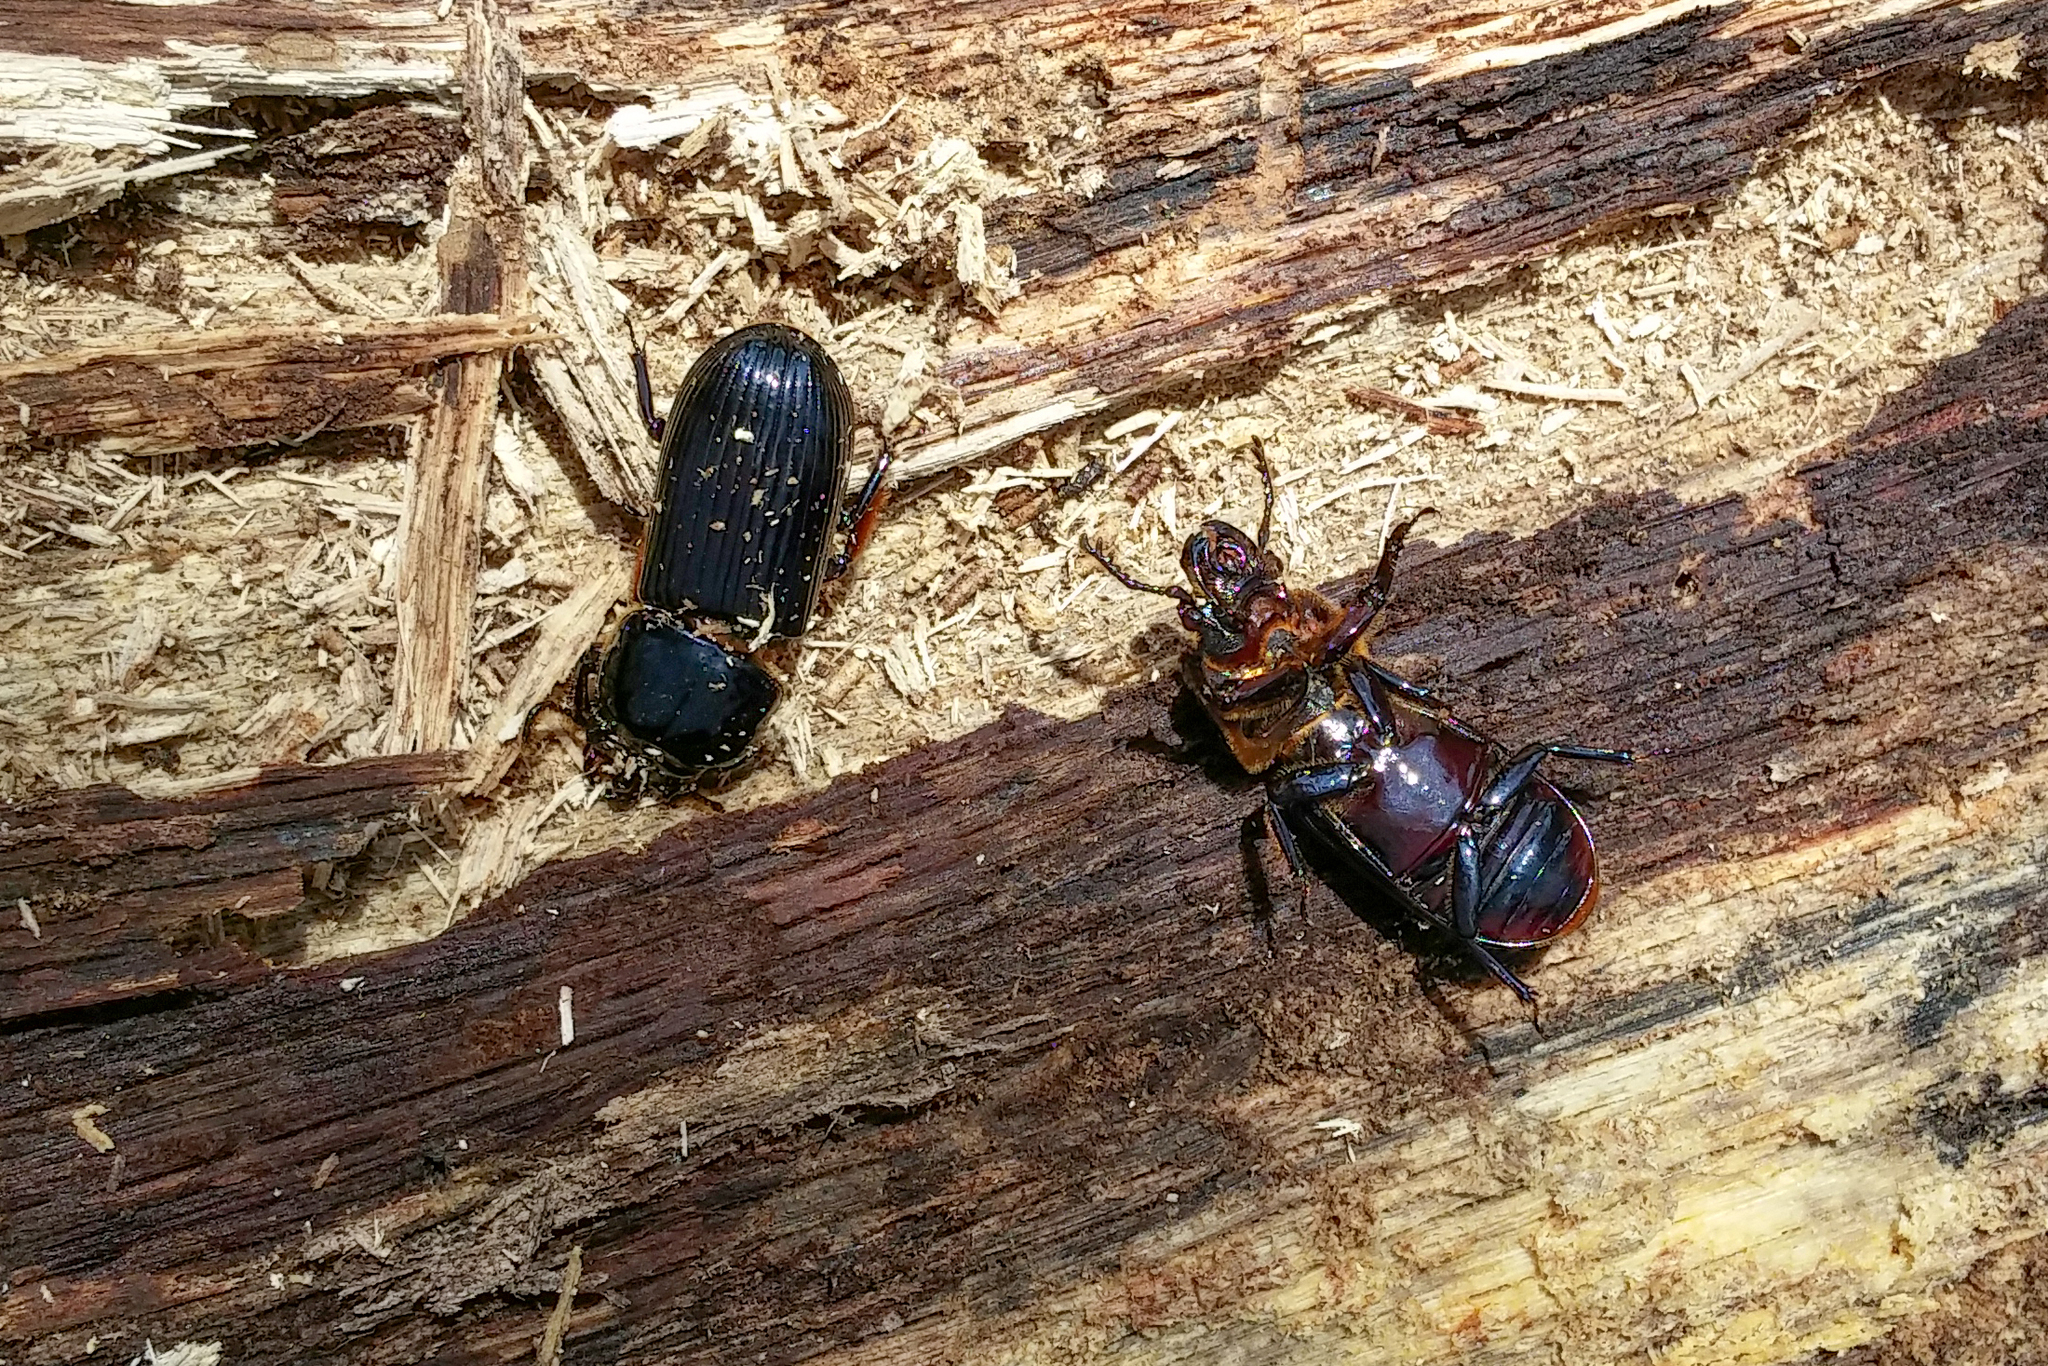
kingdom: Animalia
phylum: Arthropoda
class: Insecta
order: Coleoptera
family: Passalidae
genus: Odontotaenius
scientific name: Odontotaenius disjunctus
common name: Patent leather beetle
